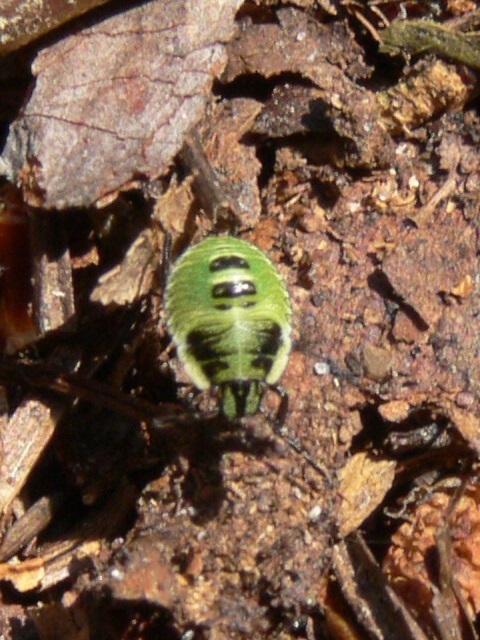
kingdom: Animalia
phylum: Arthropoda
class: Insecta
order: Hemiptera
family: Pentatomidae
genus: Palomena
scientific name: Palomena prasina
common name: Green shieldbug
